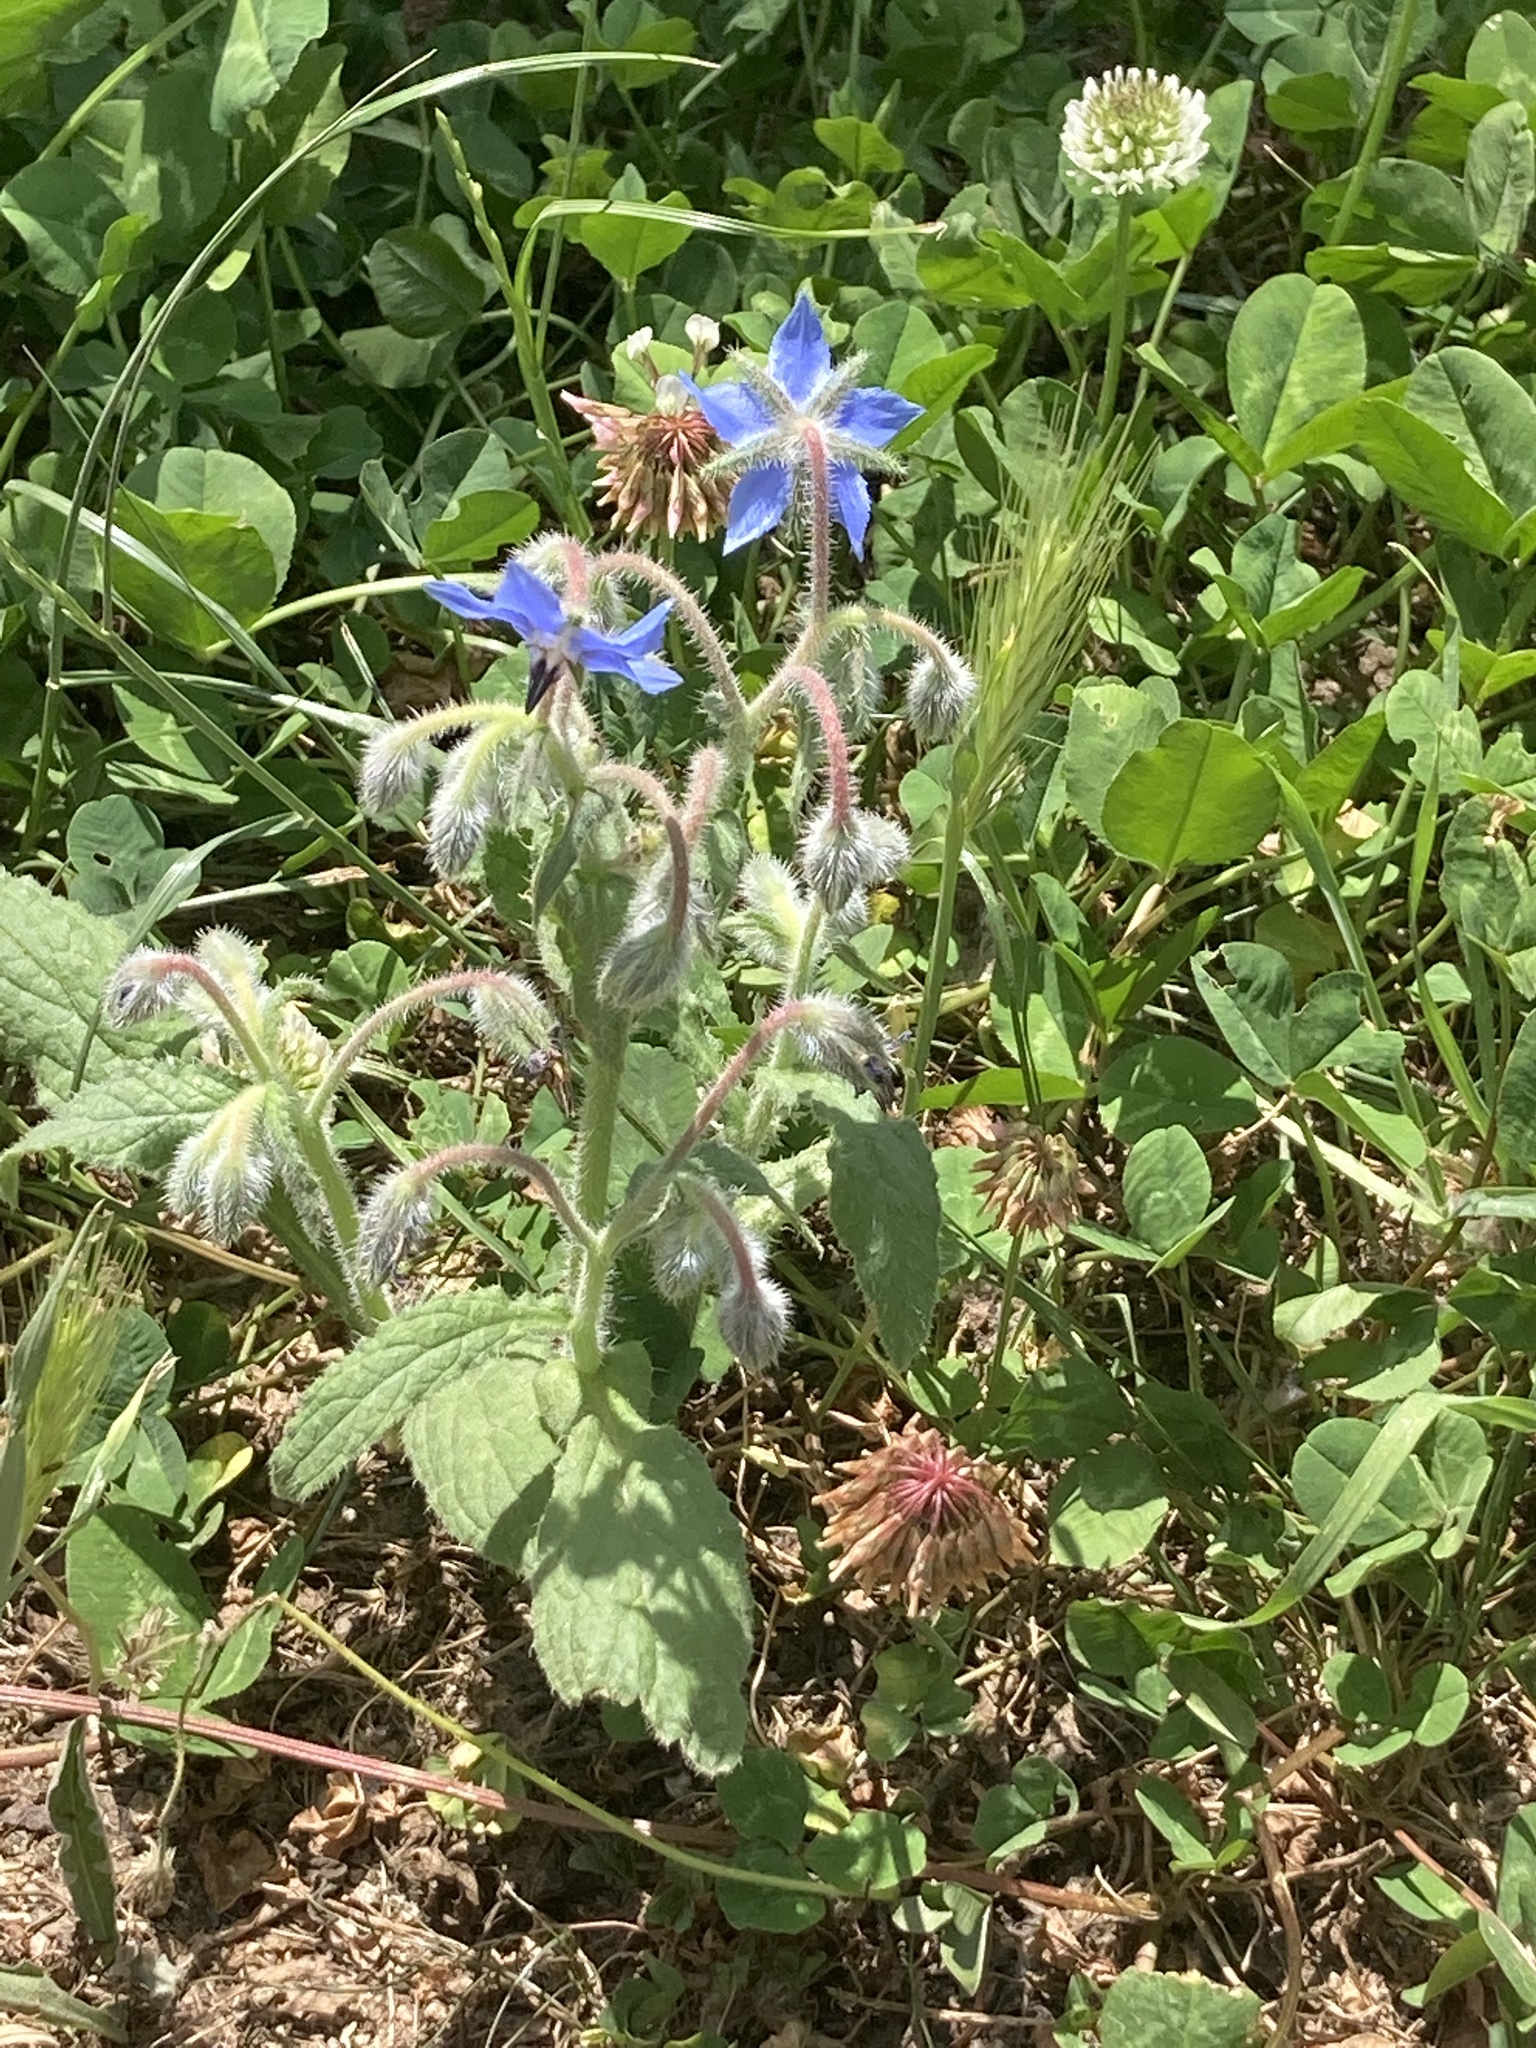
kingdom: Plantae
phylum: Tracheophyta
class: Magnoliopsida
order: Boraginales
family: Boraginaceae
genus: Borago
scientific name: Borago officinalis
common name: Borage
